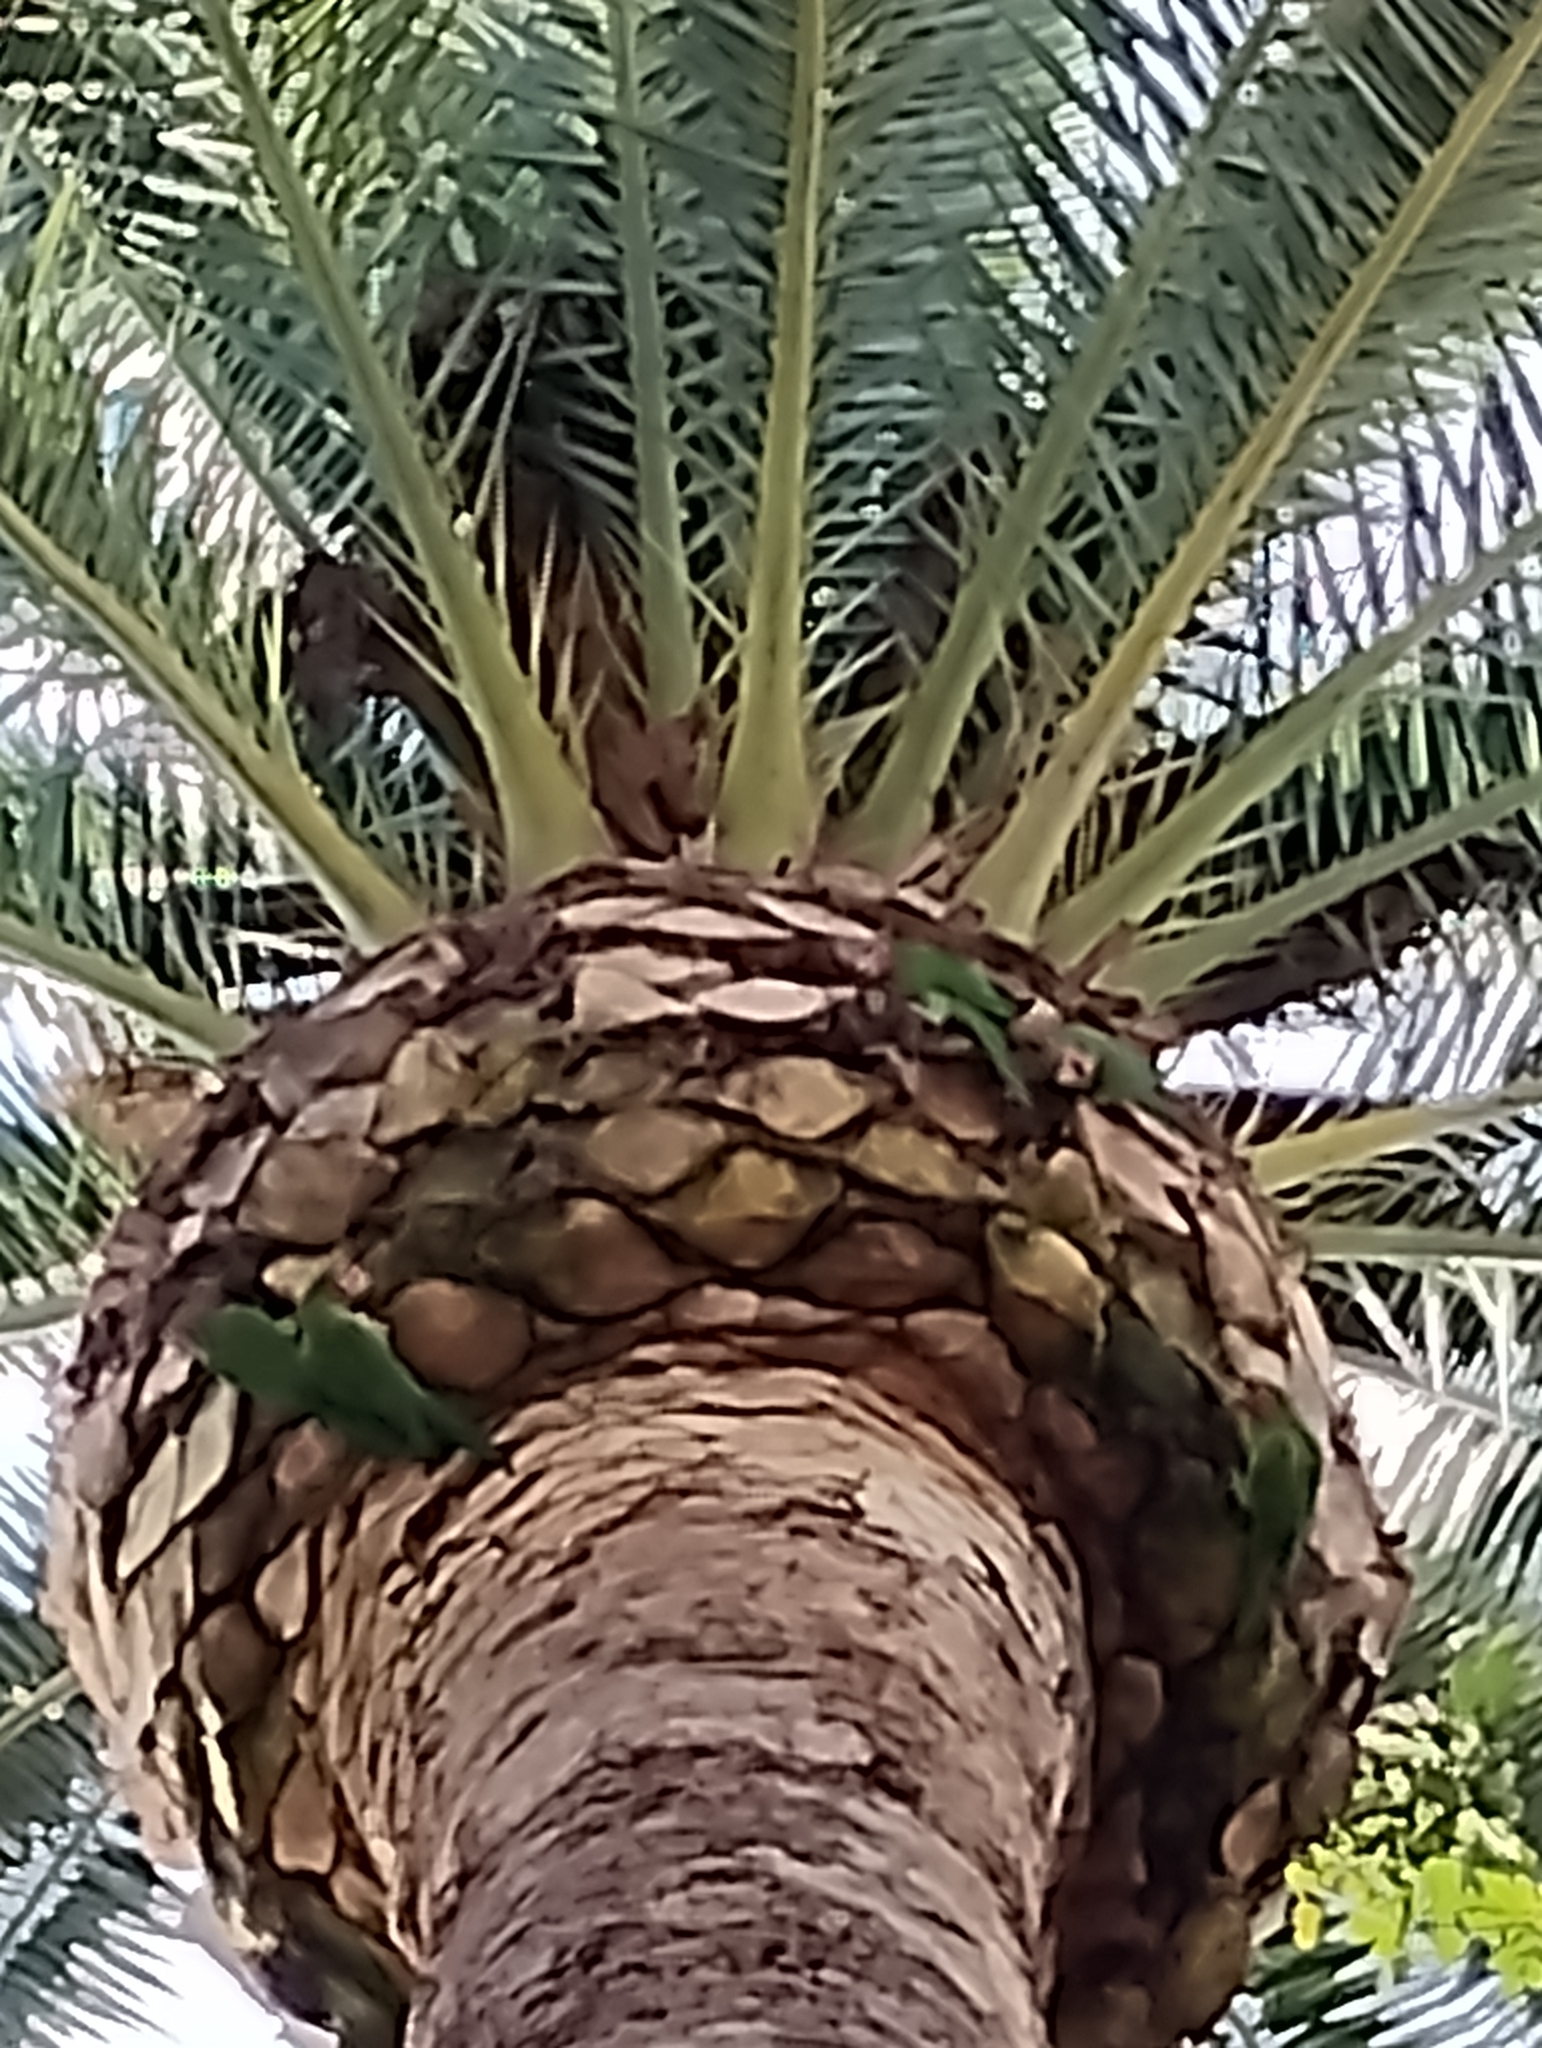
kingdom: Animalia
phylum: Chordata
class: Aves
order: Psittaciformes
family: Psittacidae
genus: Aratinga
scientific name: Aratinga mitrata
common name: Mitred parakeet
